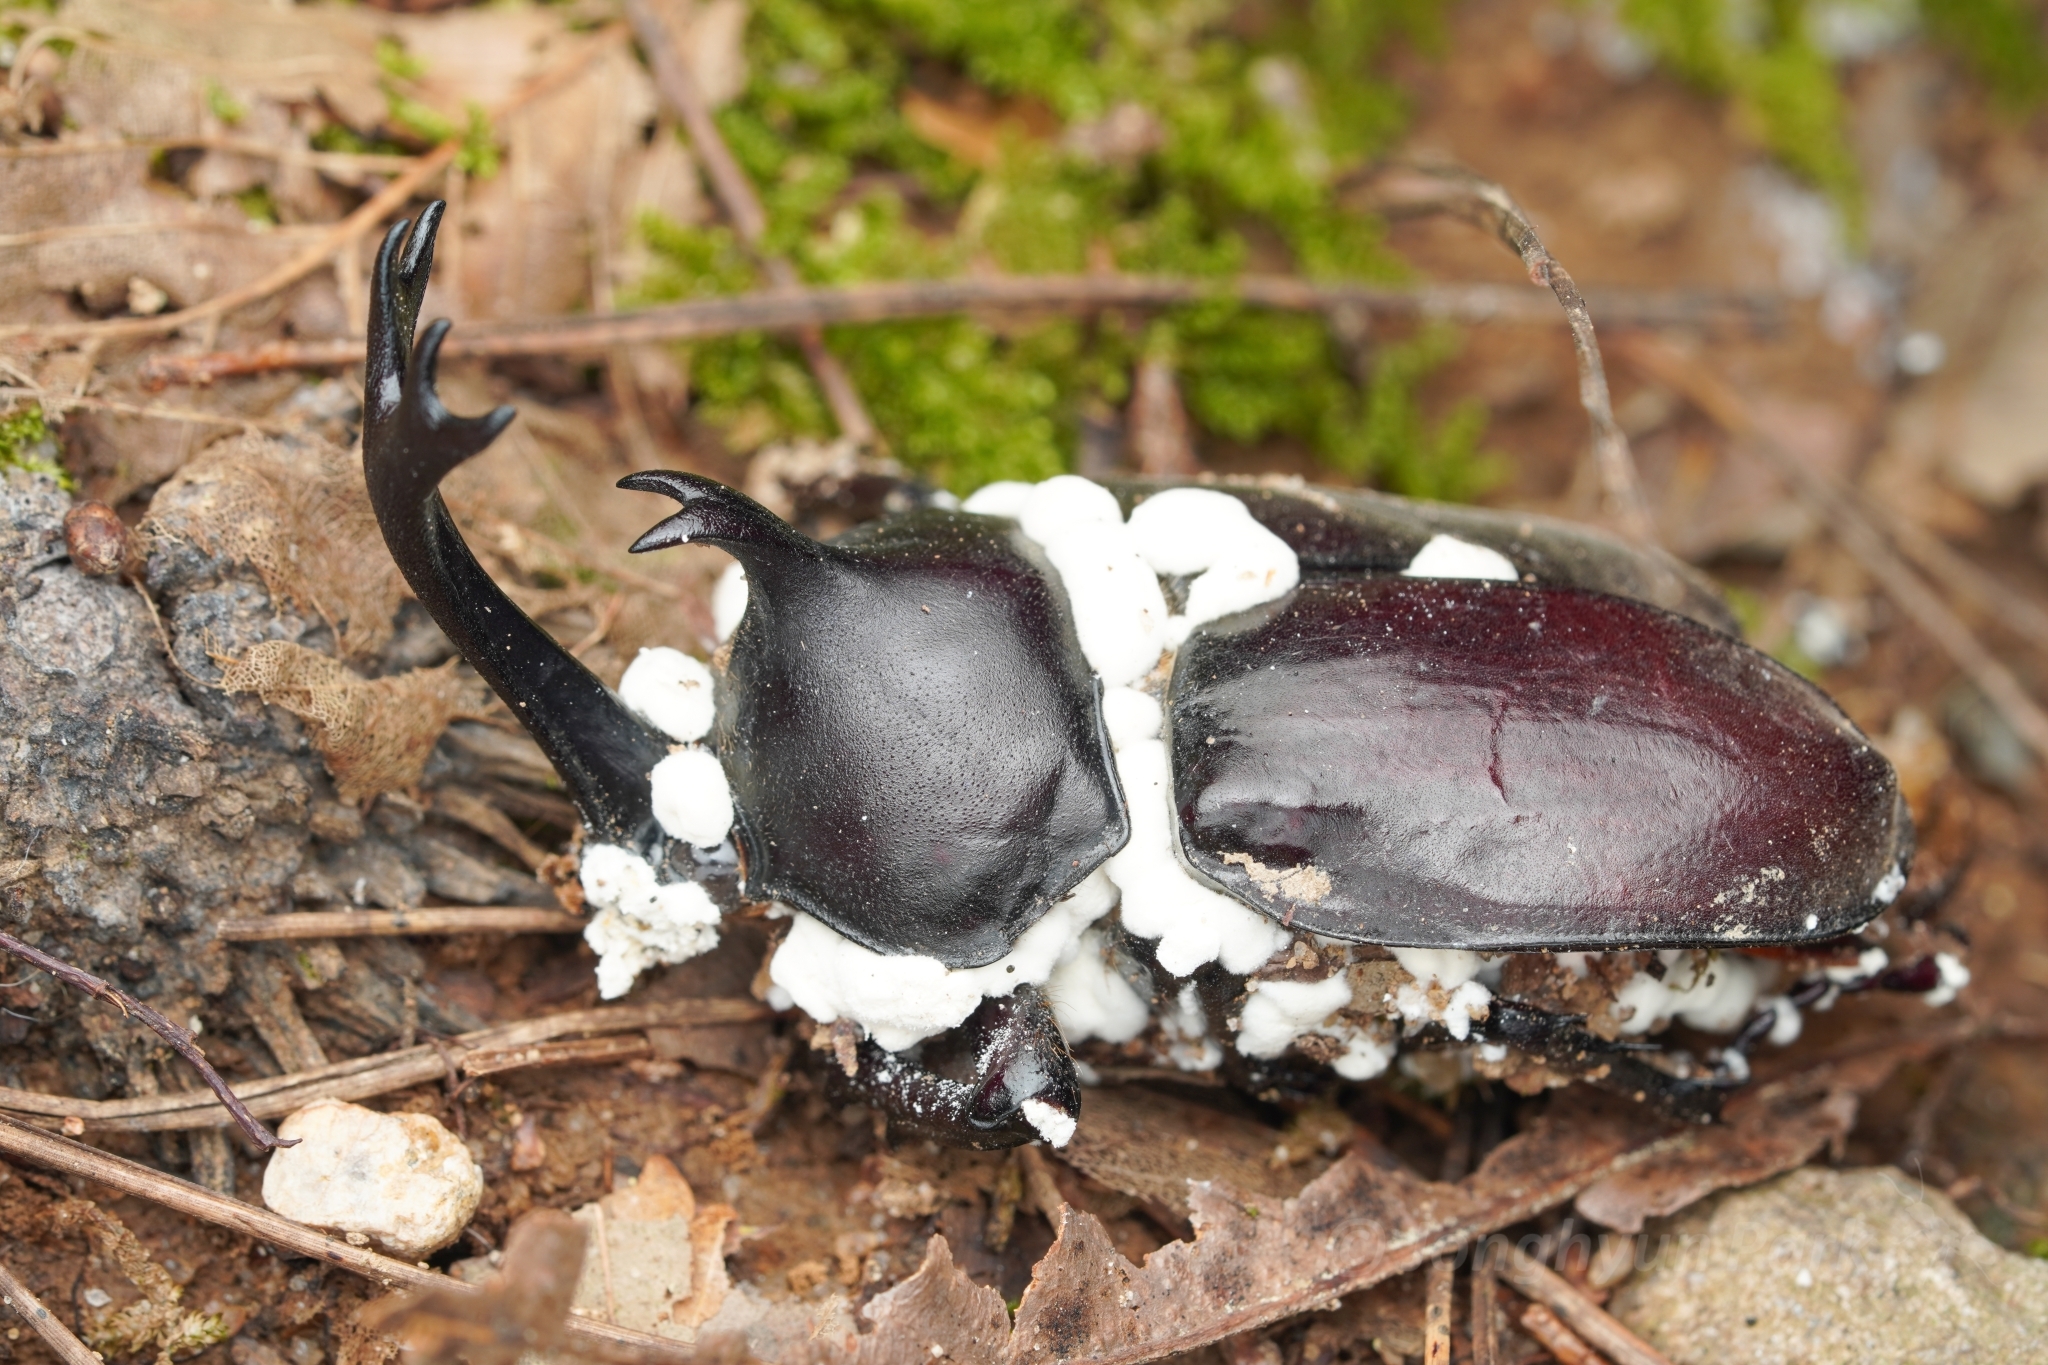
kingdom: Fungi
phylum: Ascomycota
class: Sordariomycetes
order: Hypocreales
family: Cordycipitaceae
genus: Beauveria
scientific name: Beauveria bassiana
